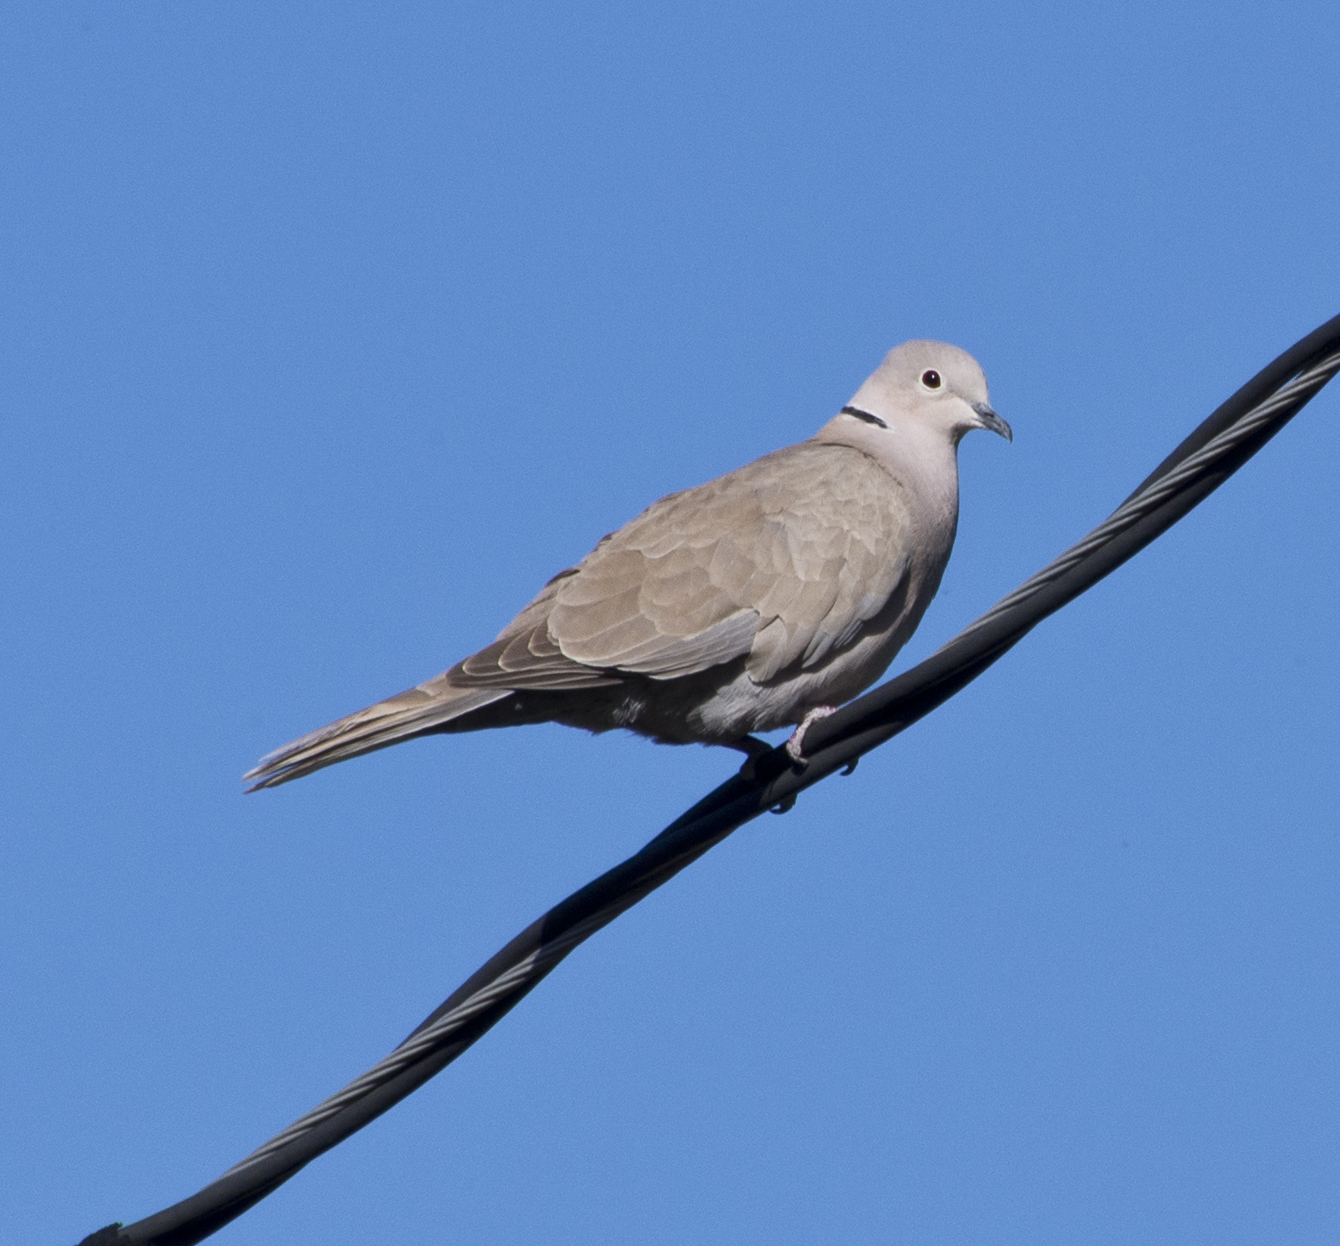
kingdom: Animalia
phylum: Chordata
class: Aves
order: Columbiformes
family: Columbidae
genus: Streptopelia
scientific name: Streptopelia decaocto
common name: Eurasian collared dove
